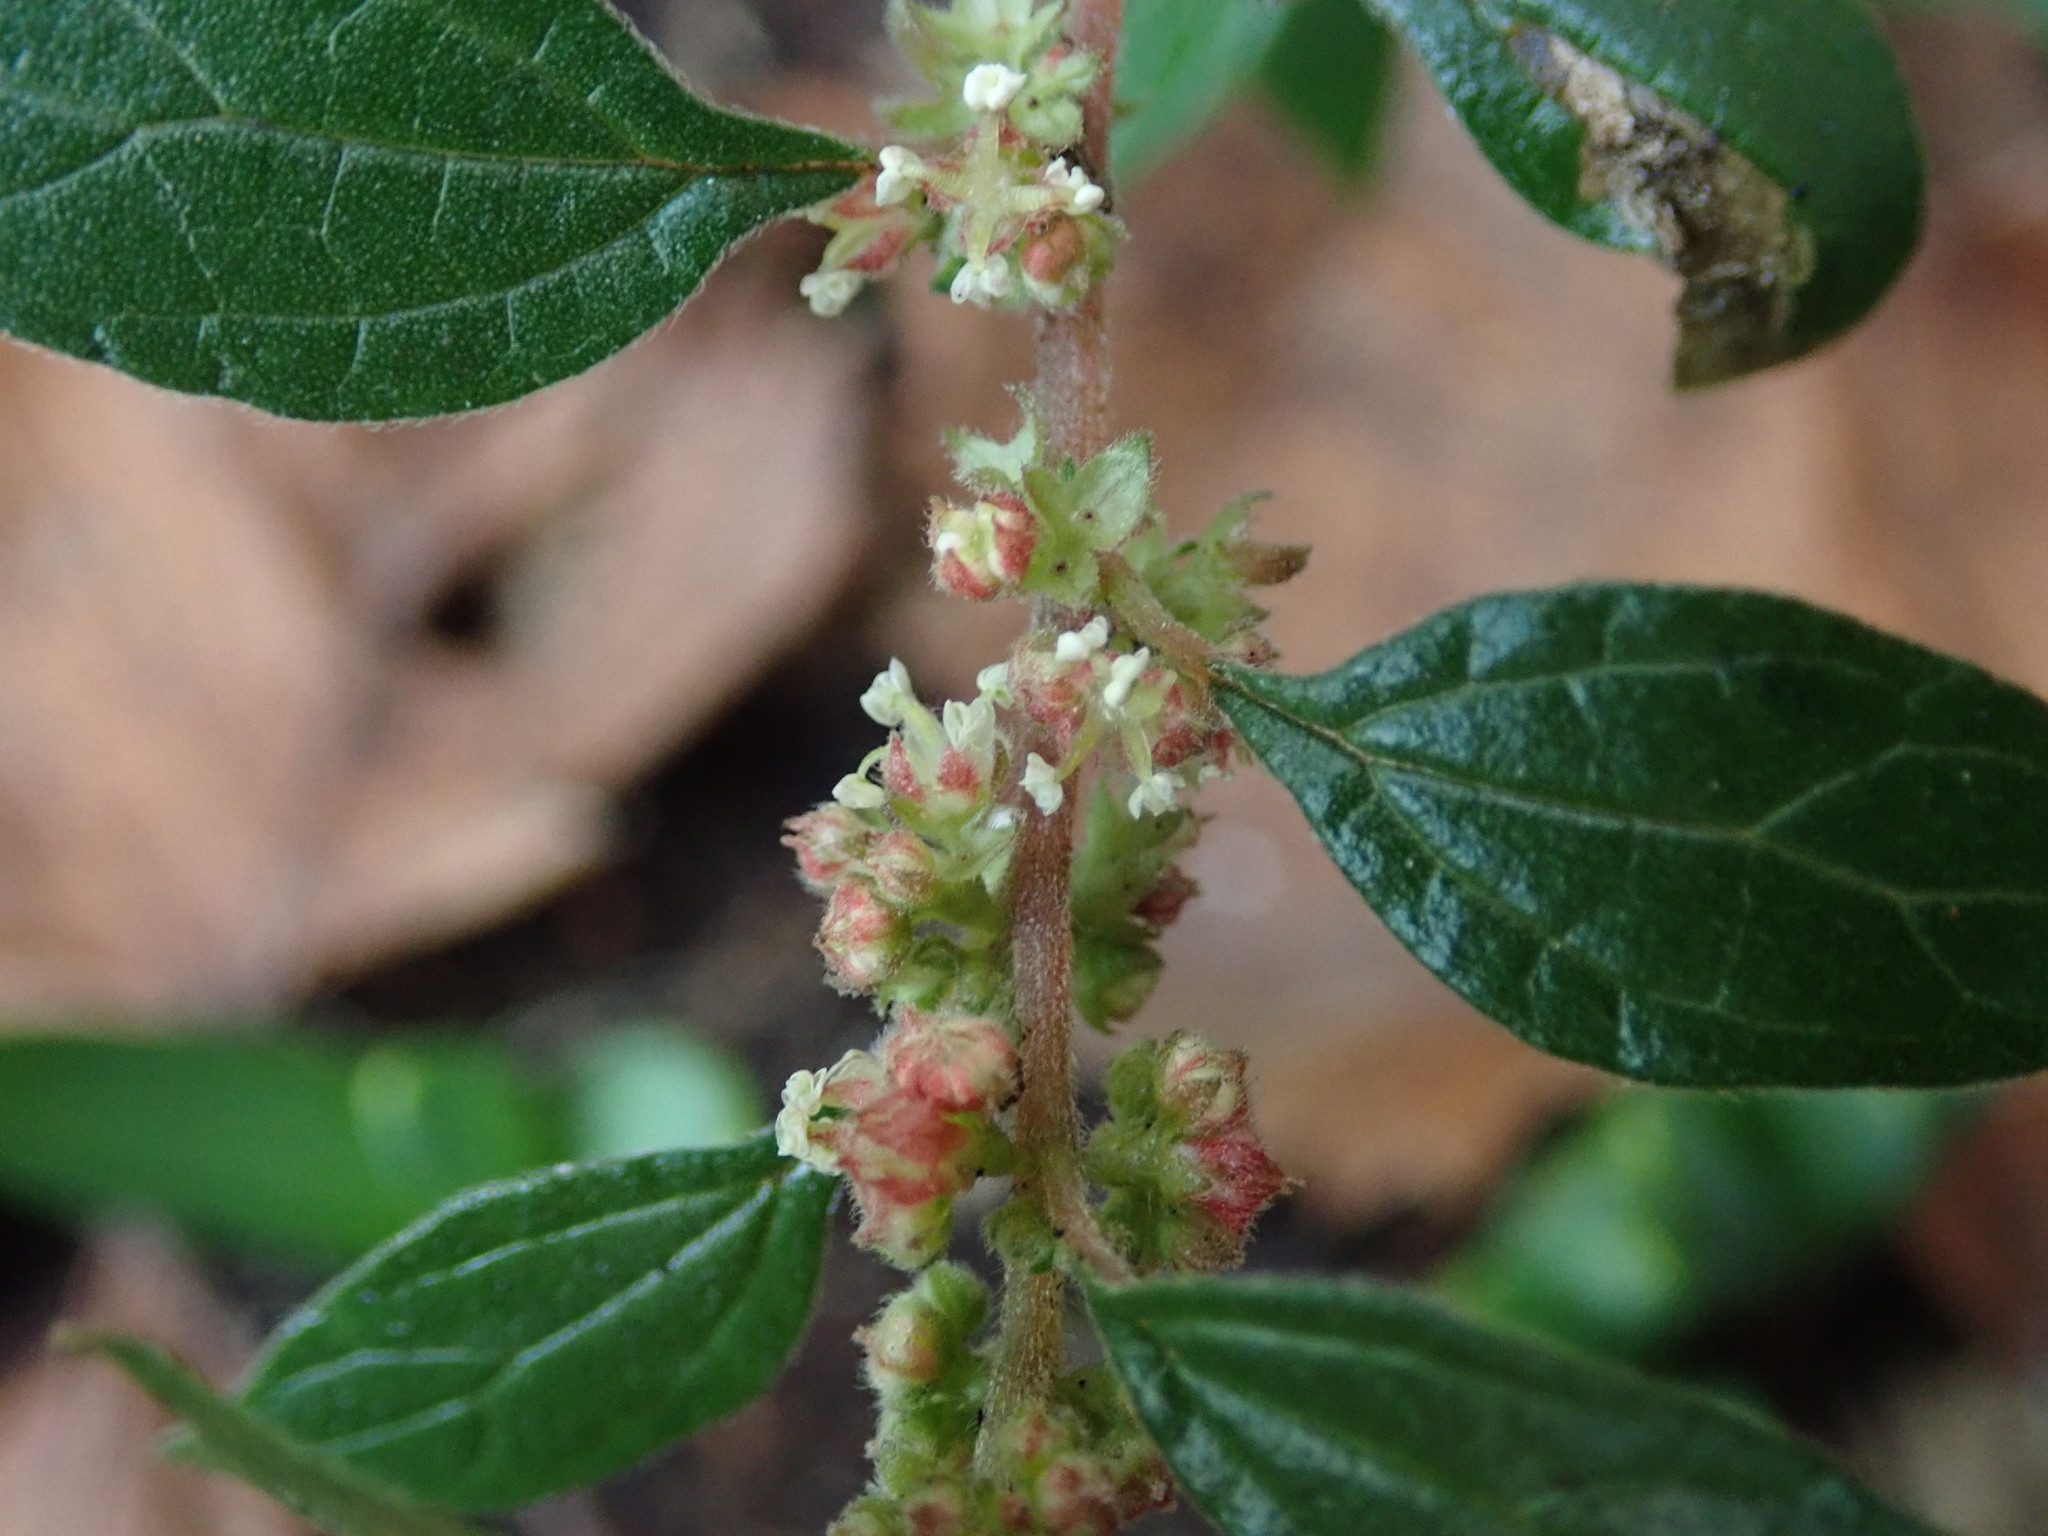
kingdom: Plantae
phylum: Tracheophyta
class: Magnoliopsida
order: Rosales
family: Urticaceae
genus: Parietaria
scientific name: Parietaria judaica
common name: Pellitory-of-the-wall
